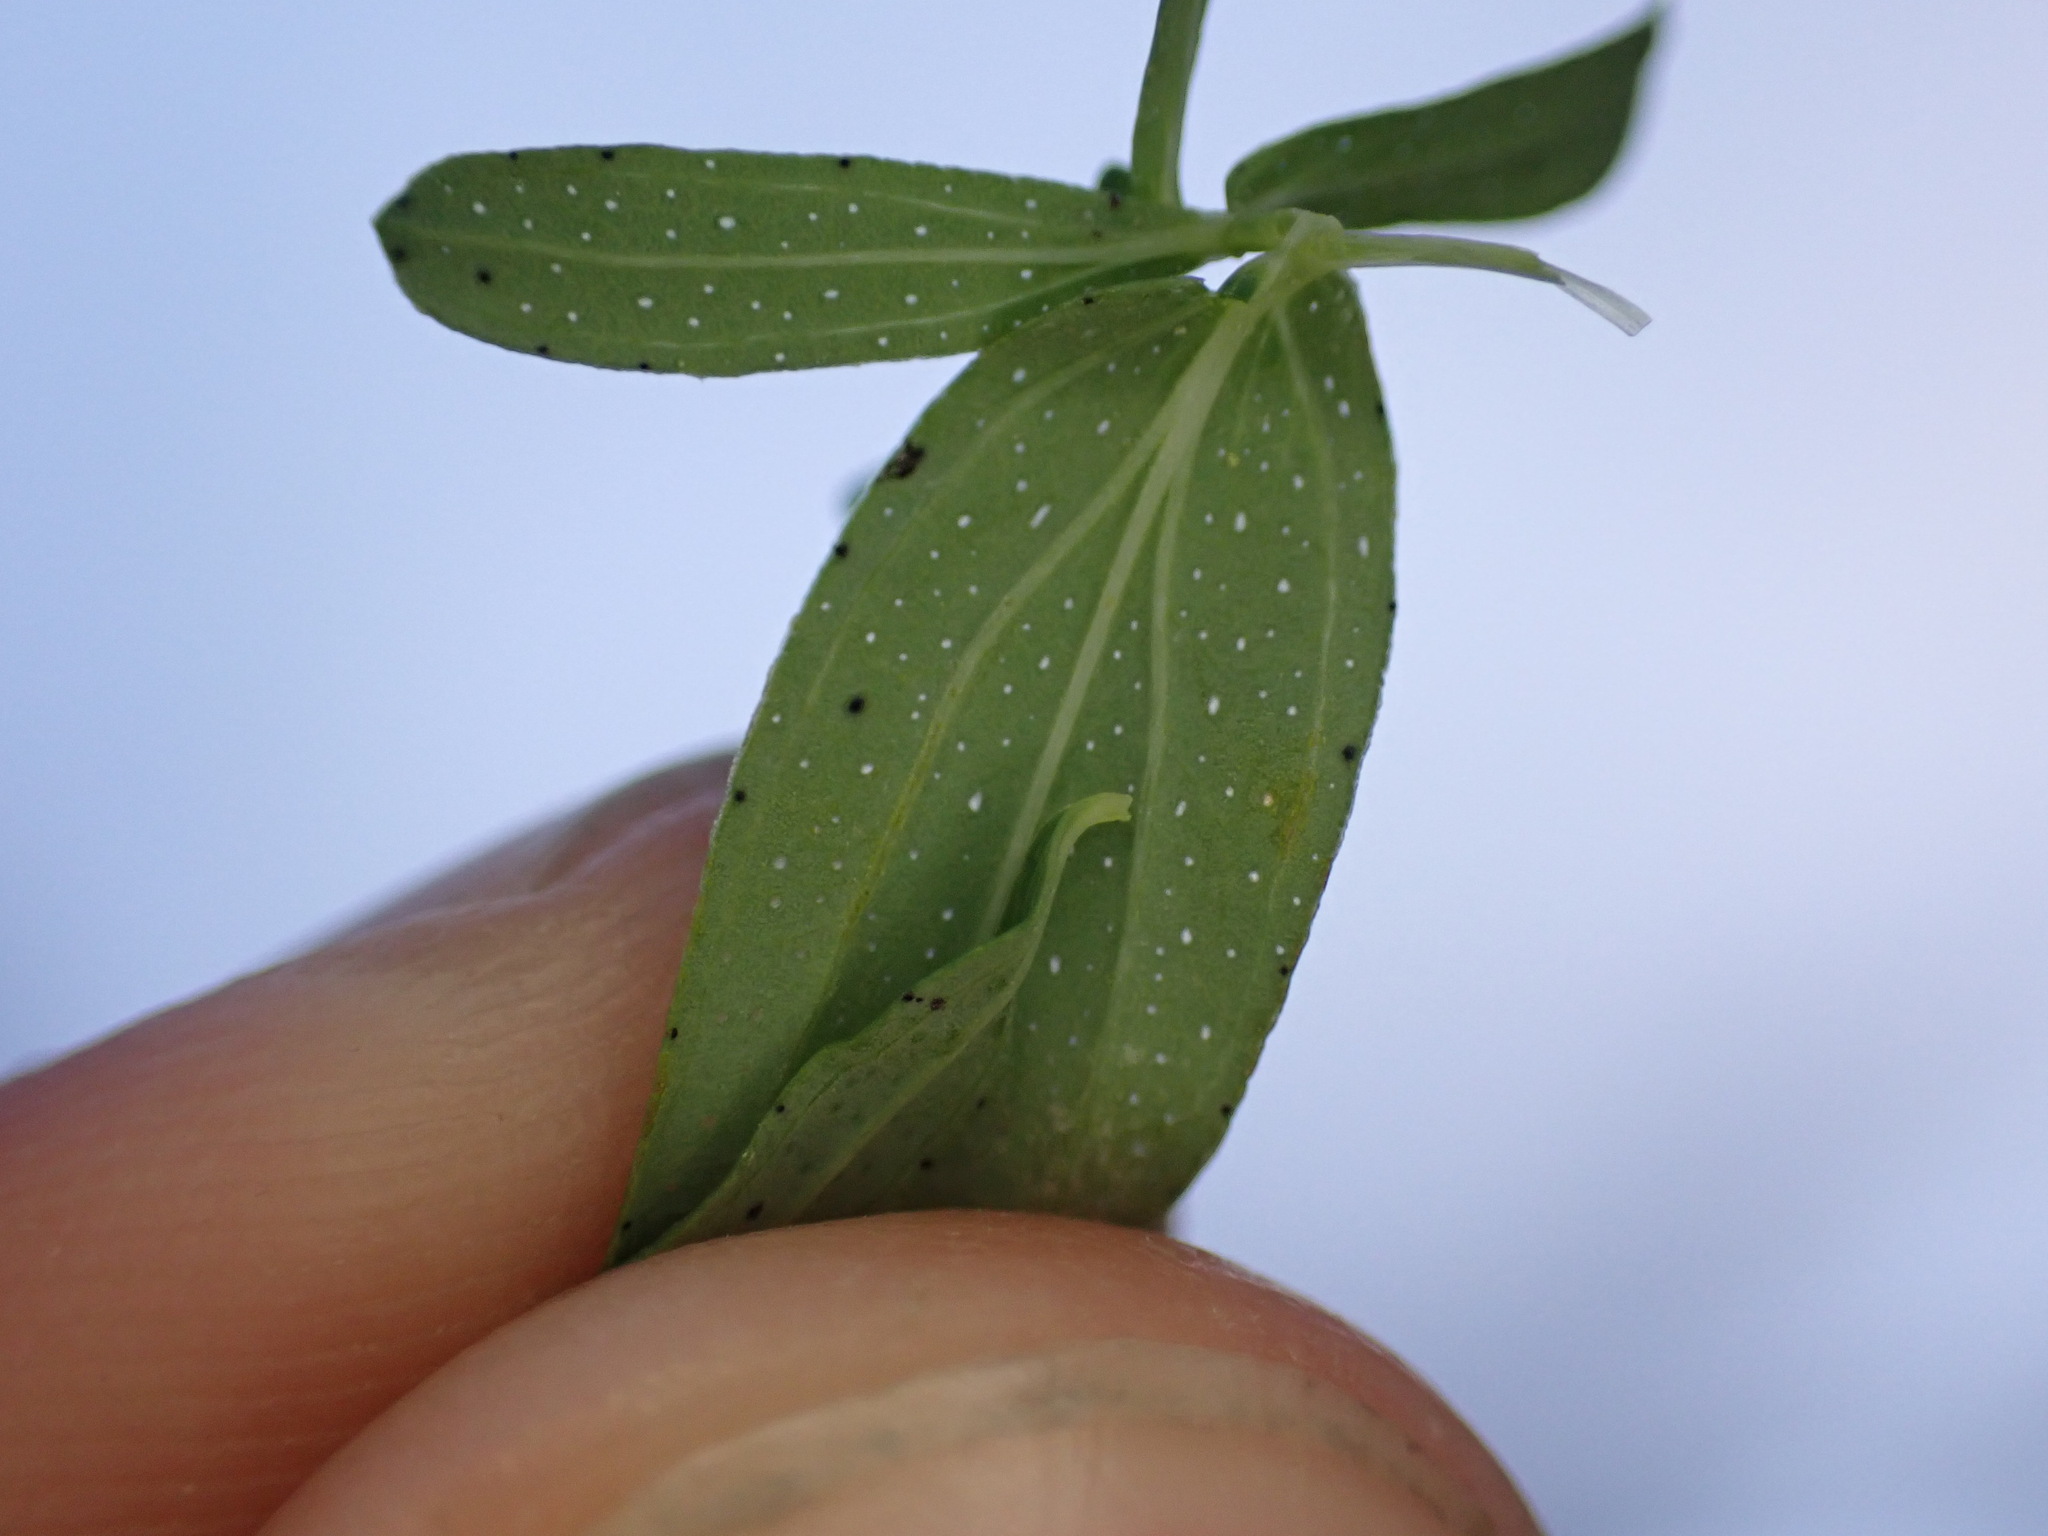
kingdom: Plantae
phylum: Tracheophyta
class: Magnoliopsida
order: Malpighiales
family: Hypericaceae
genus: Hypericum
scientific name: Hypericum perforatum
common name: Common st. johnswort
